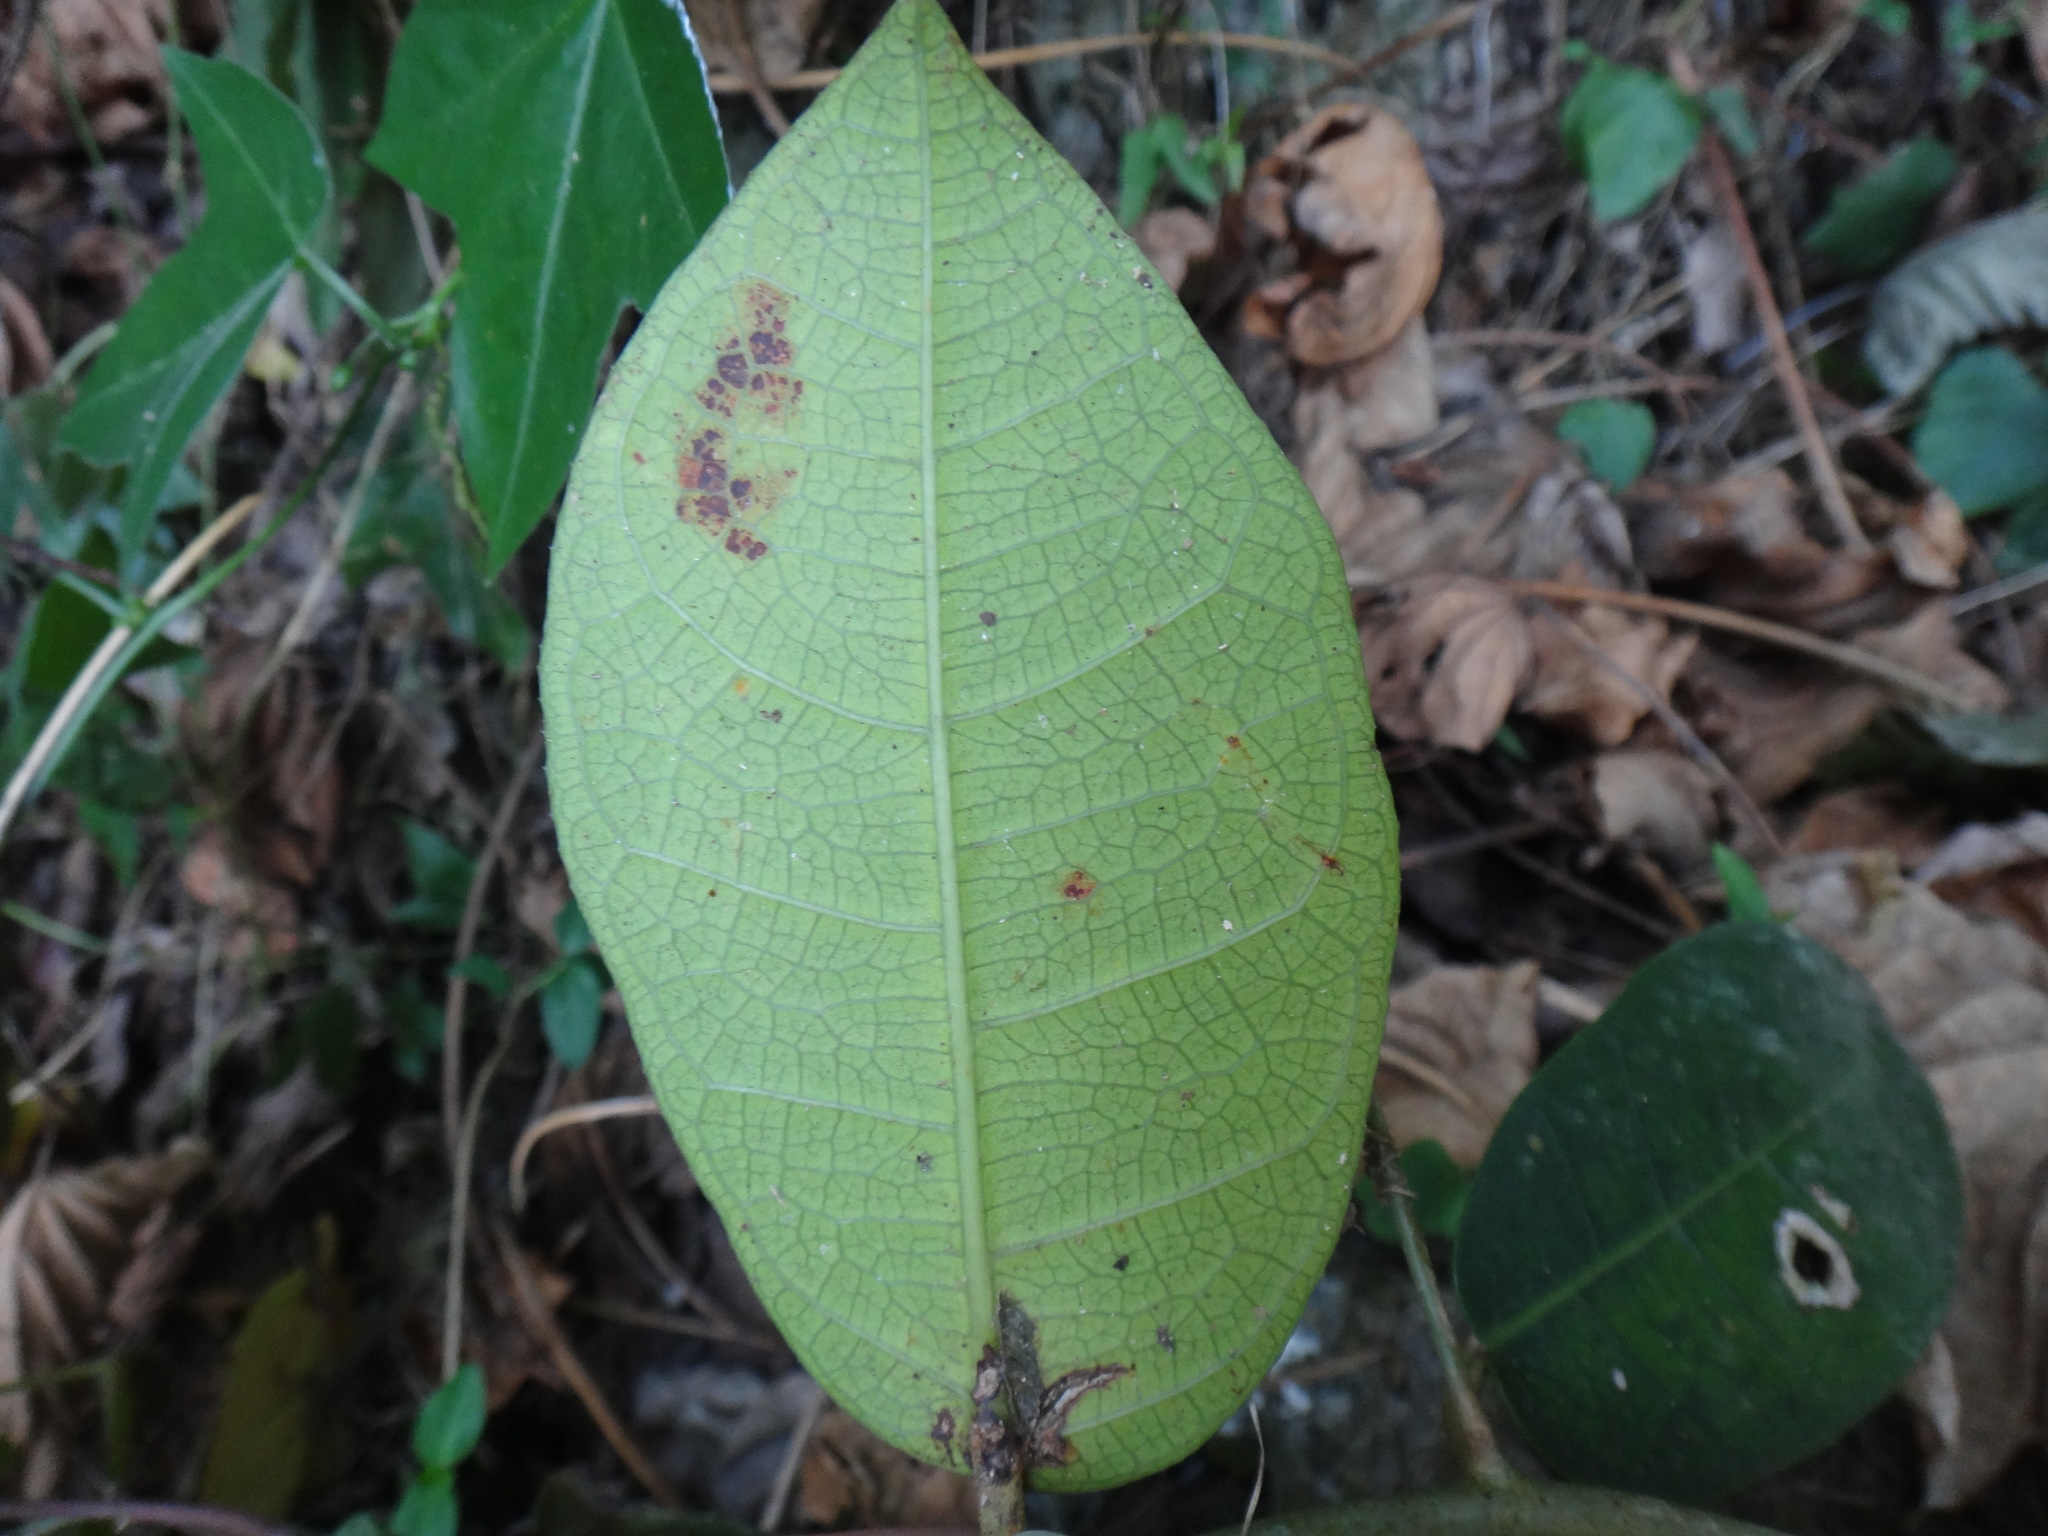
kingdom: Plantae
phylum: Tracheophyta
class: Magnoliopsida
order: Rosales
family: Moraceae
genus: Ficus
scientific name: Ficus tinctoria
